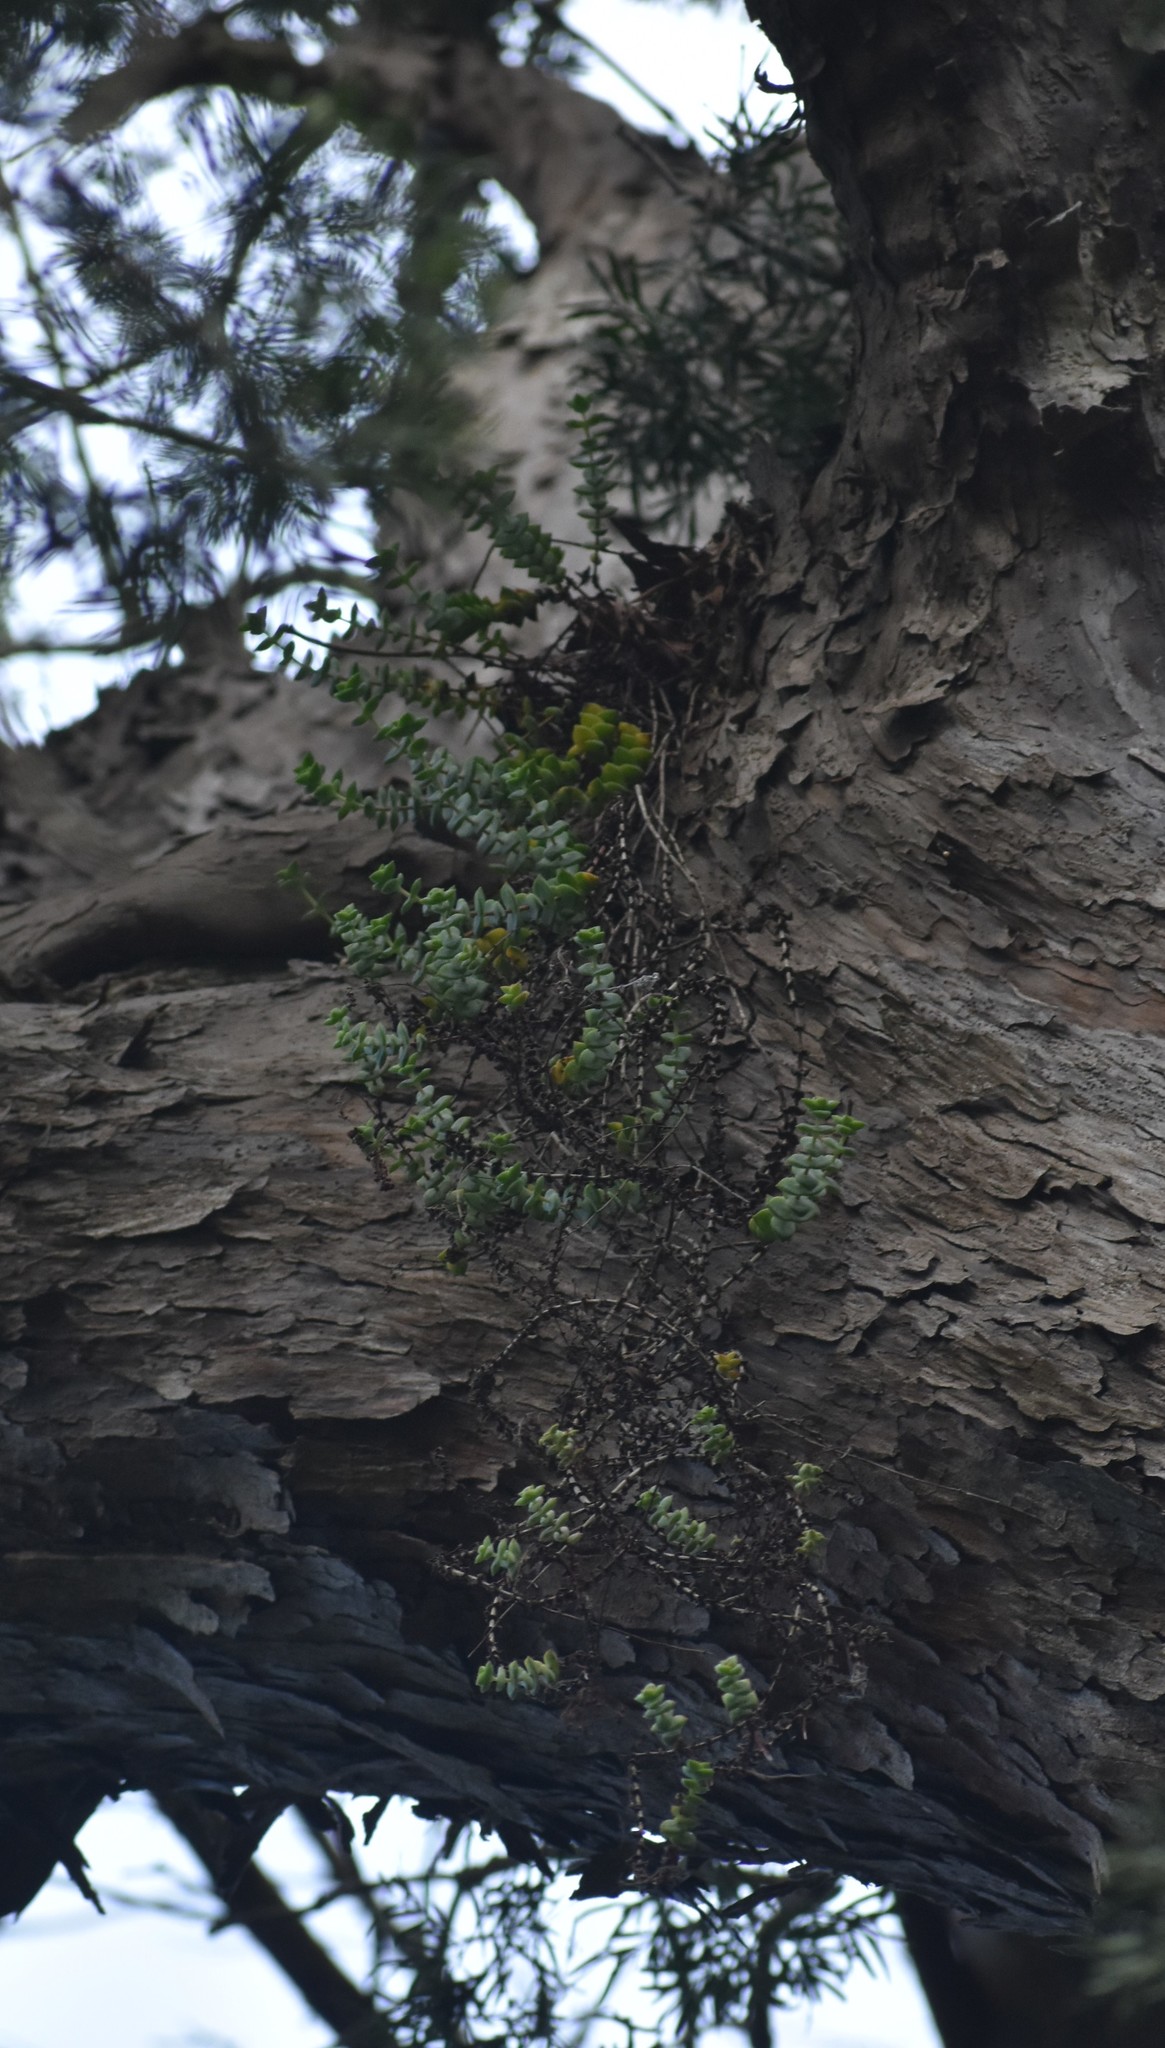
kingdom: Plantae
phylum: Tracheophyta
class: Magnoliopsida
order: Saxifragales
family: Crassulaceae
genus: Crassula
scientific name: Crassula perforata
